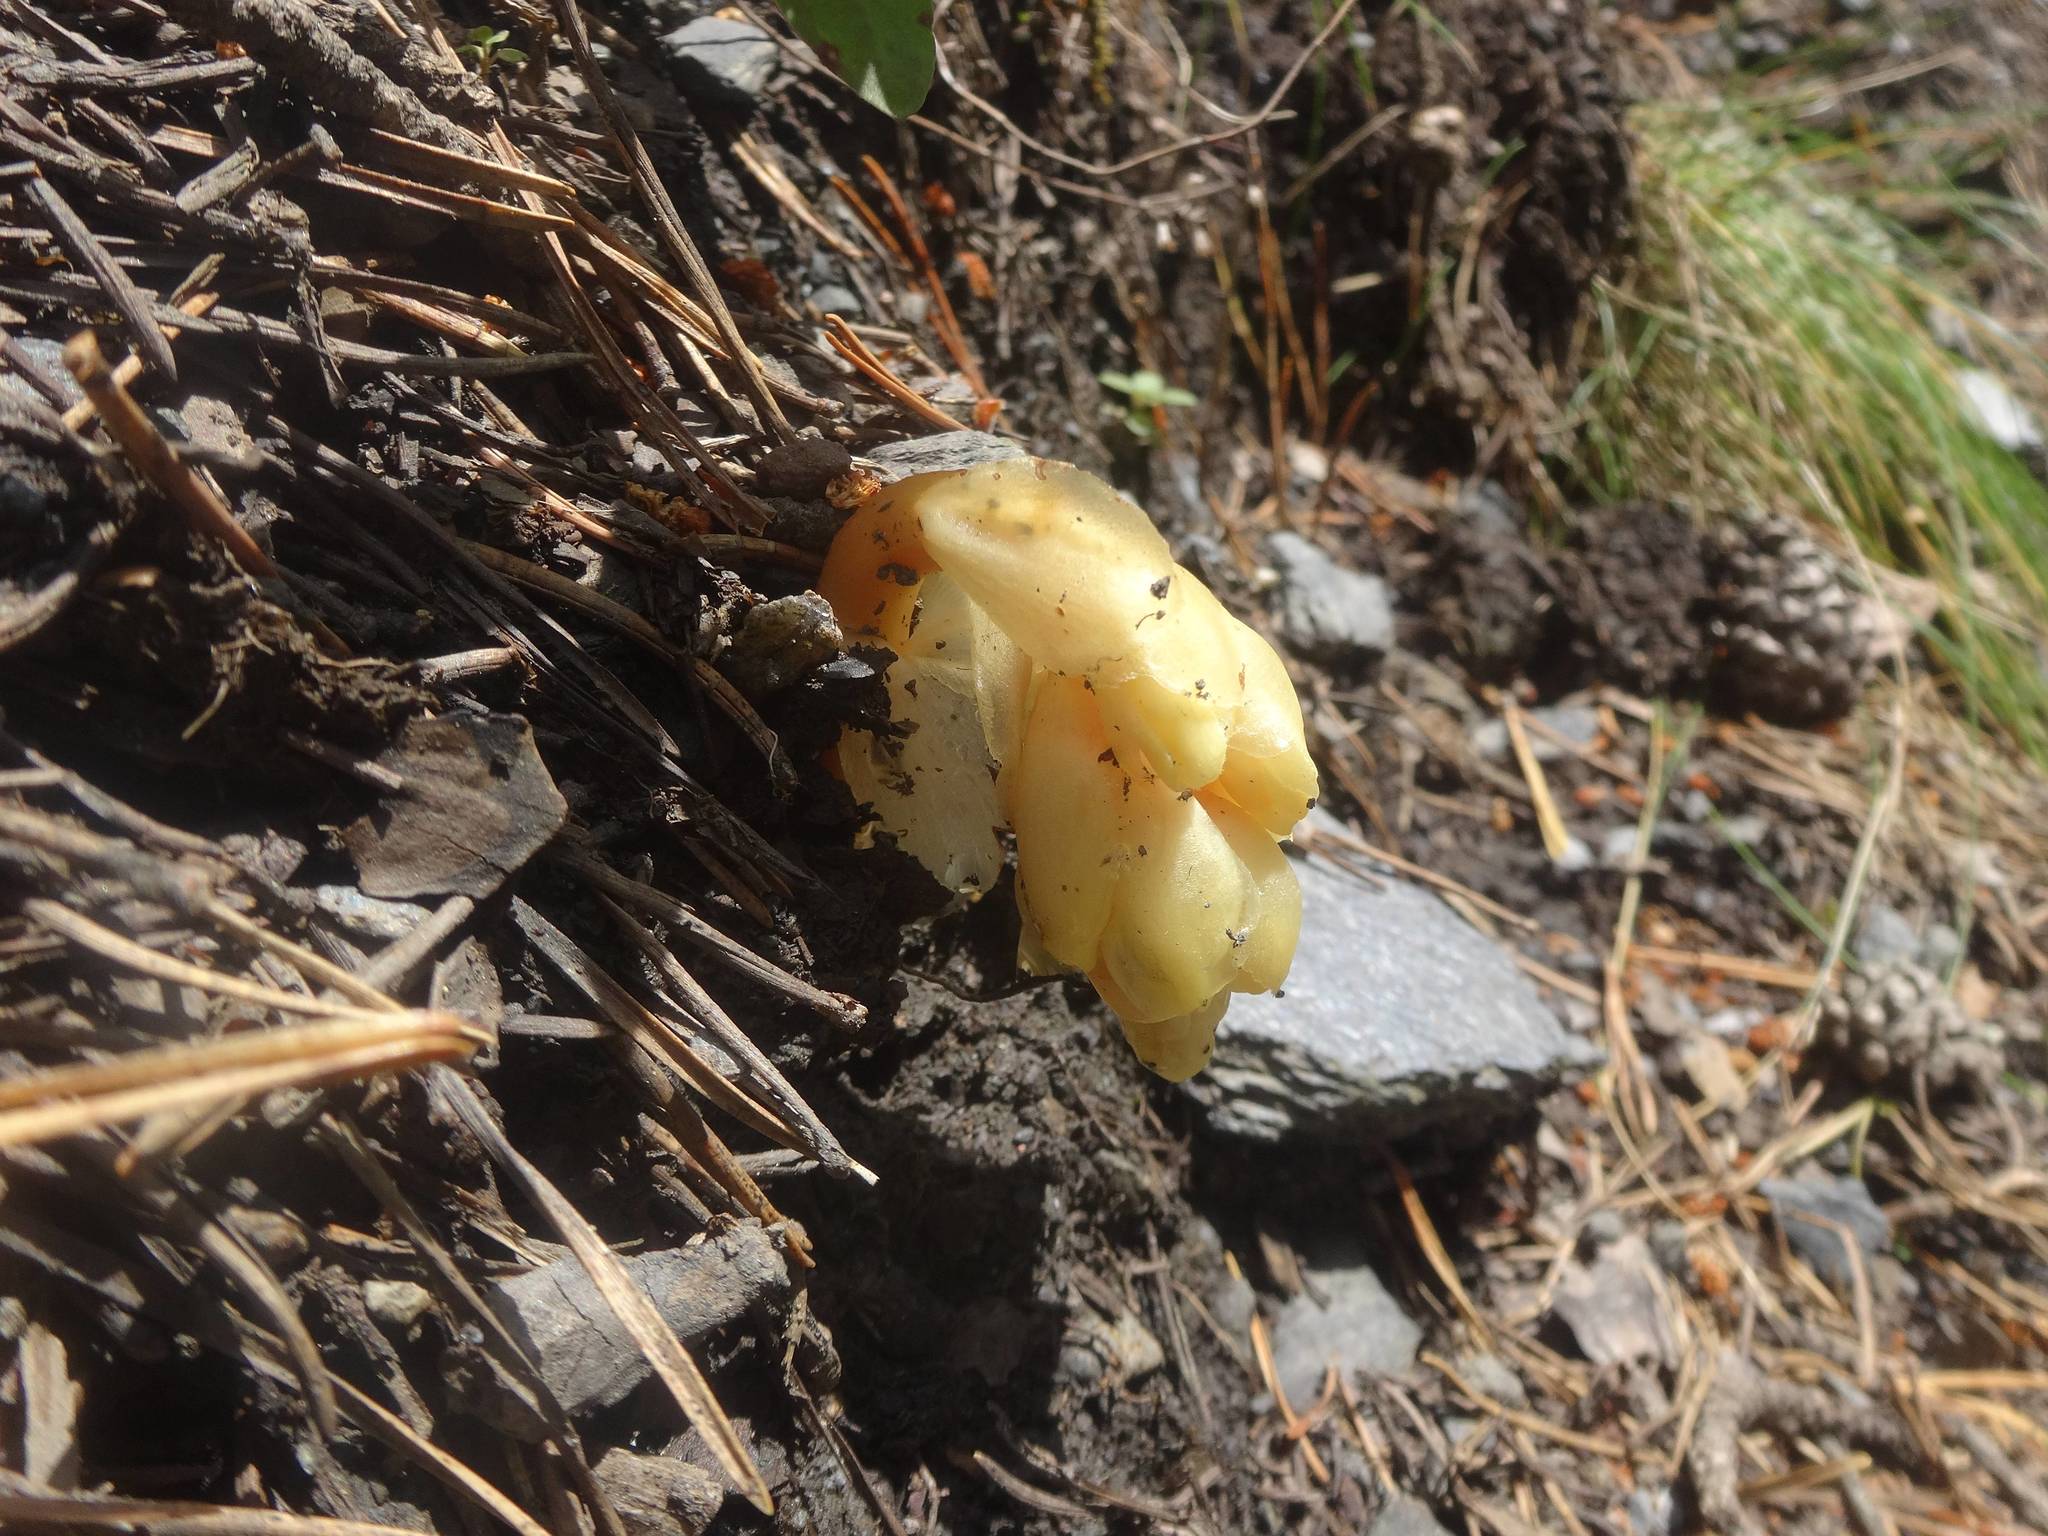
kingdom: Plantae
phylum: Tracheophyta
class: Magnoliopsida
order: Ericales
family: Ericaceae
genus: Hypopitys
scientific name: Hypopitys monotropa
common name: Yellow bird's-nest
